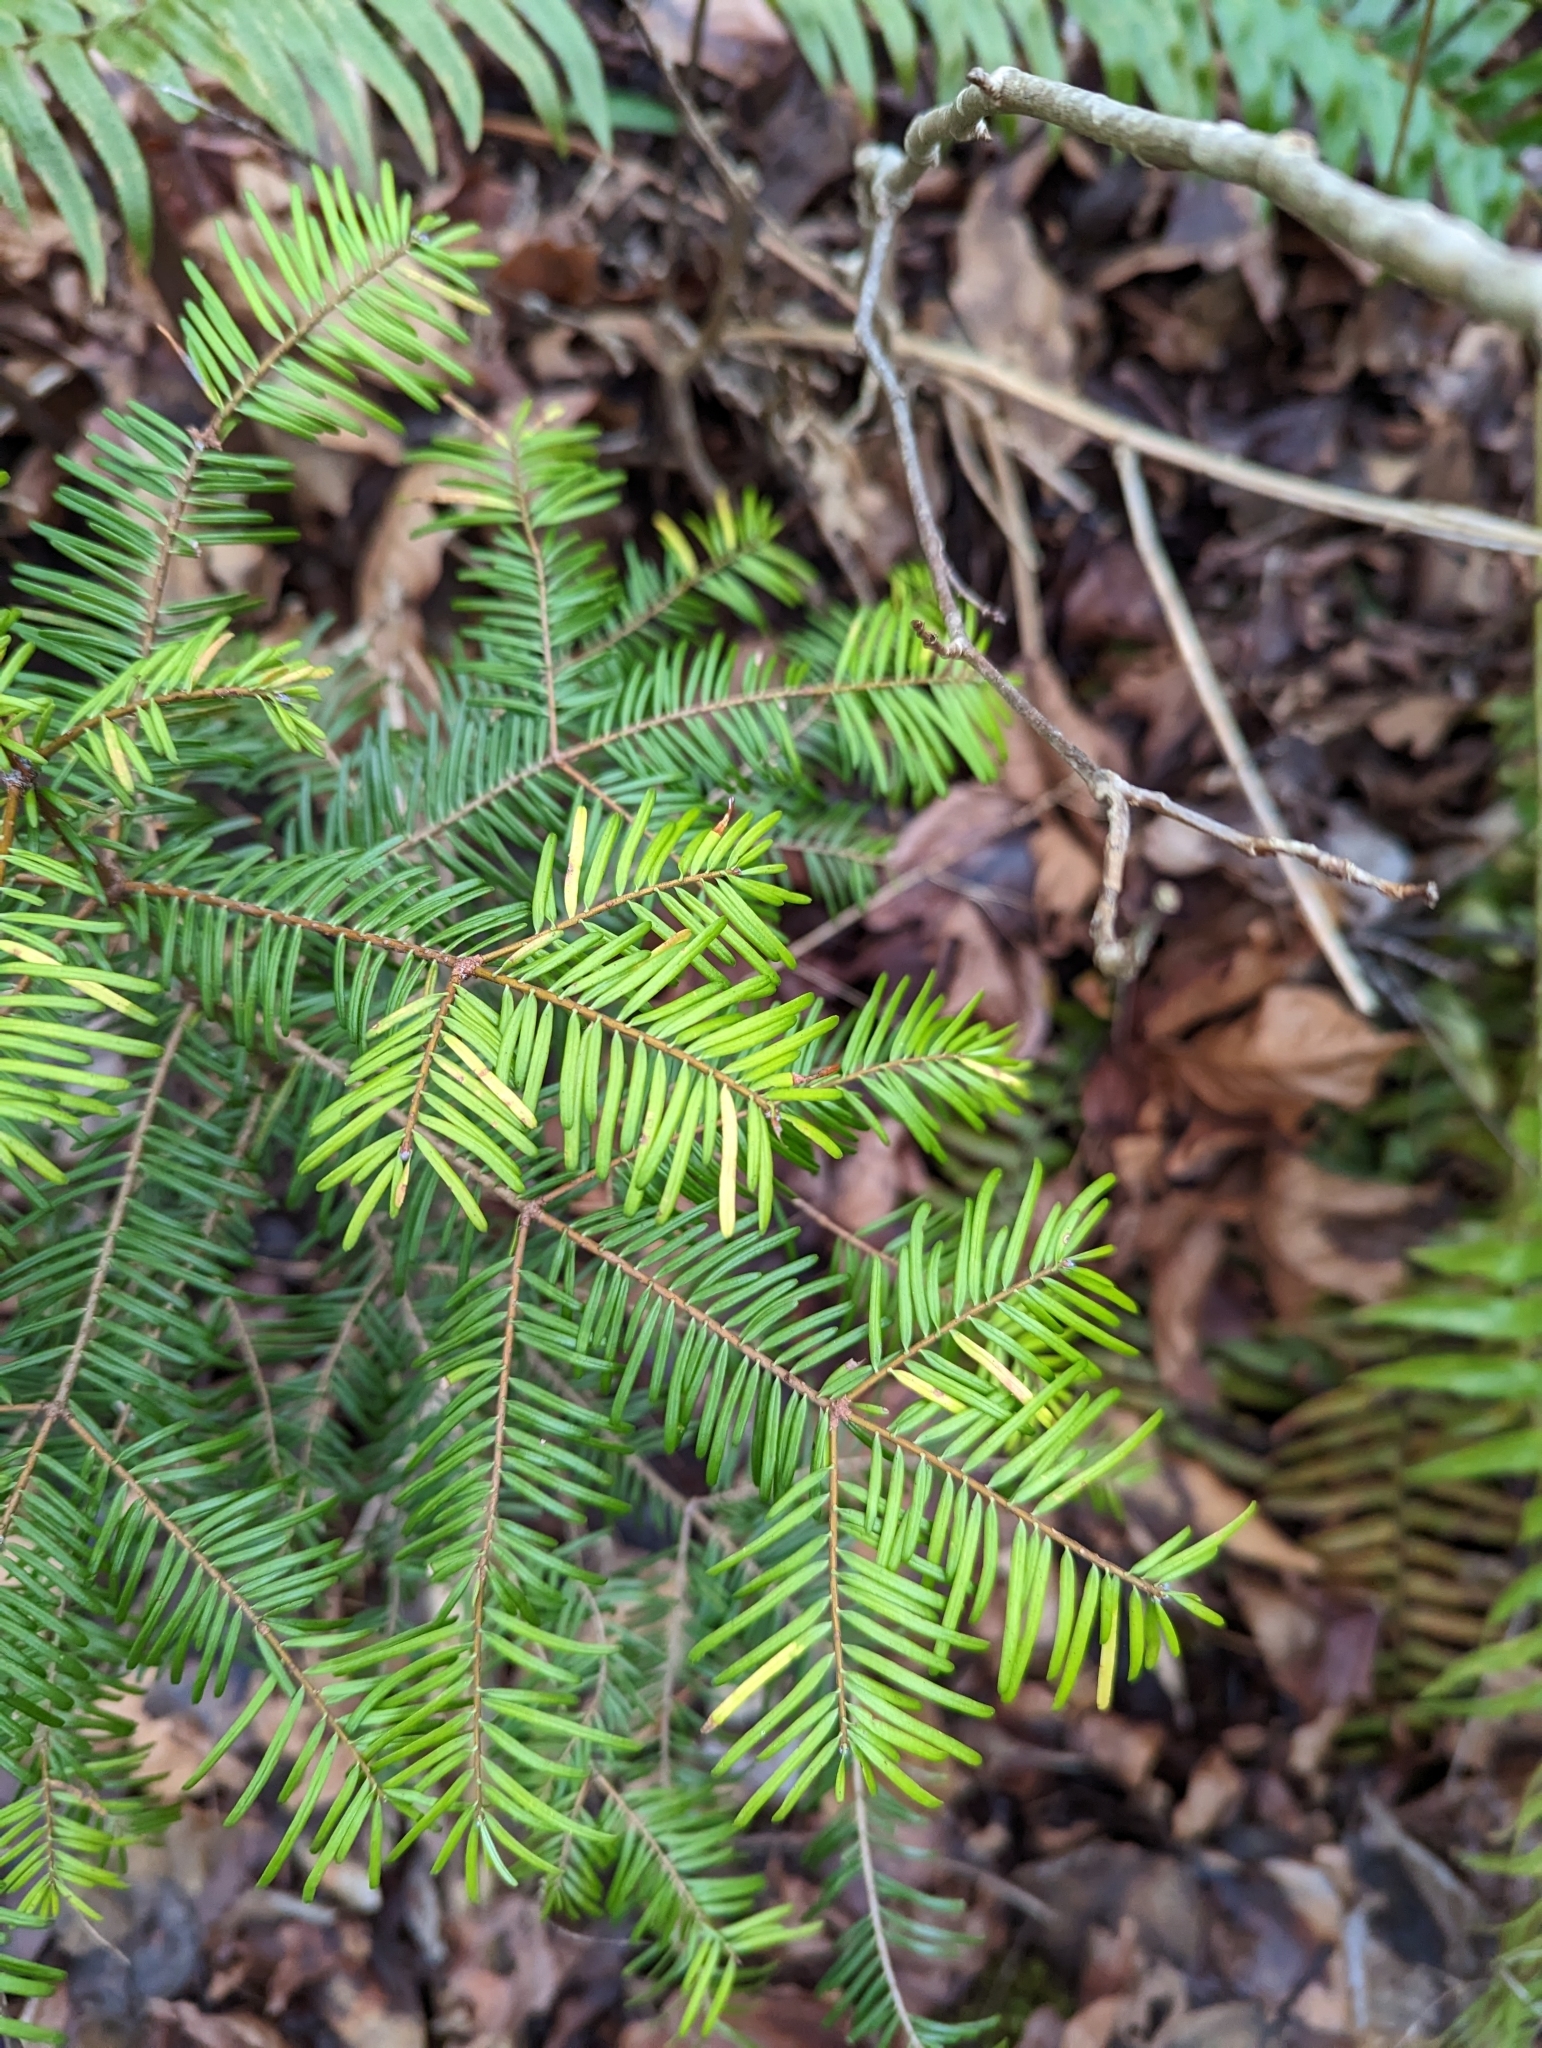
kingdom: Plantae
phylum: Tracheophyta
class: Pinopsida
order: Pinales
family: Pinaceae
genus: Abies
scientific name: Abies grandis
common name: Giant fir
